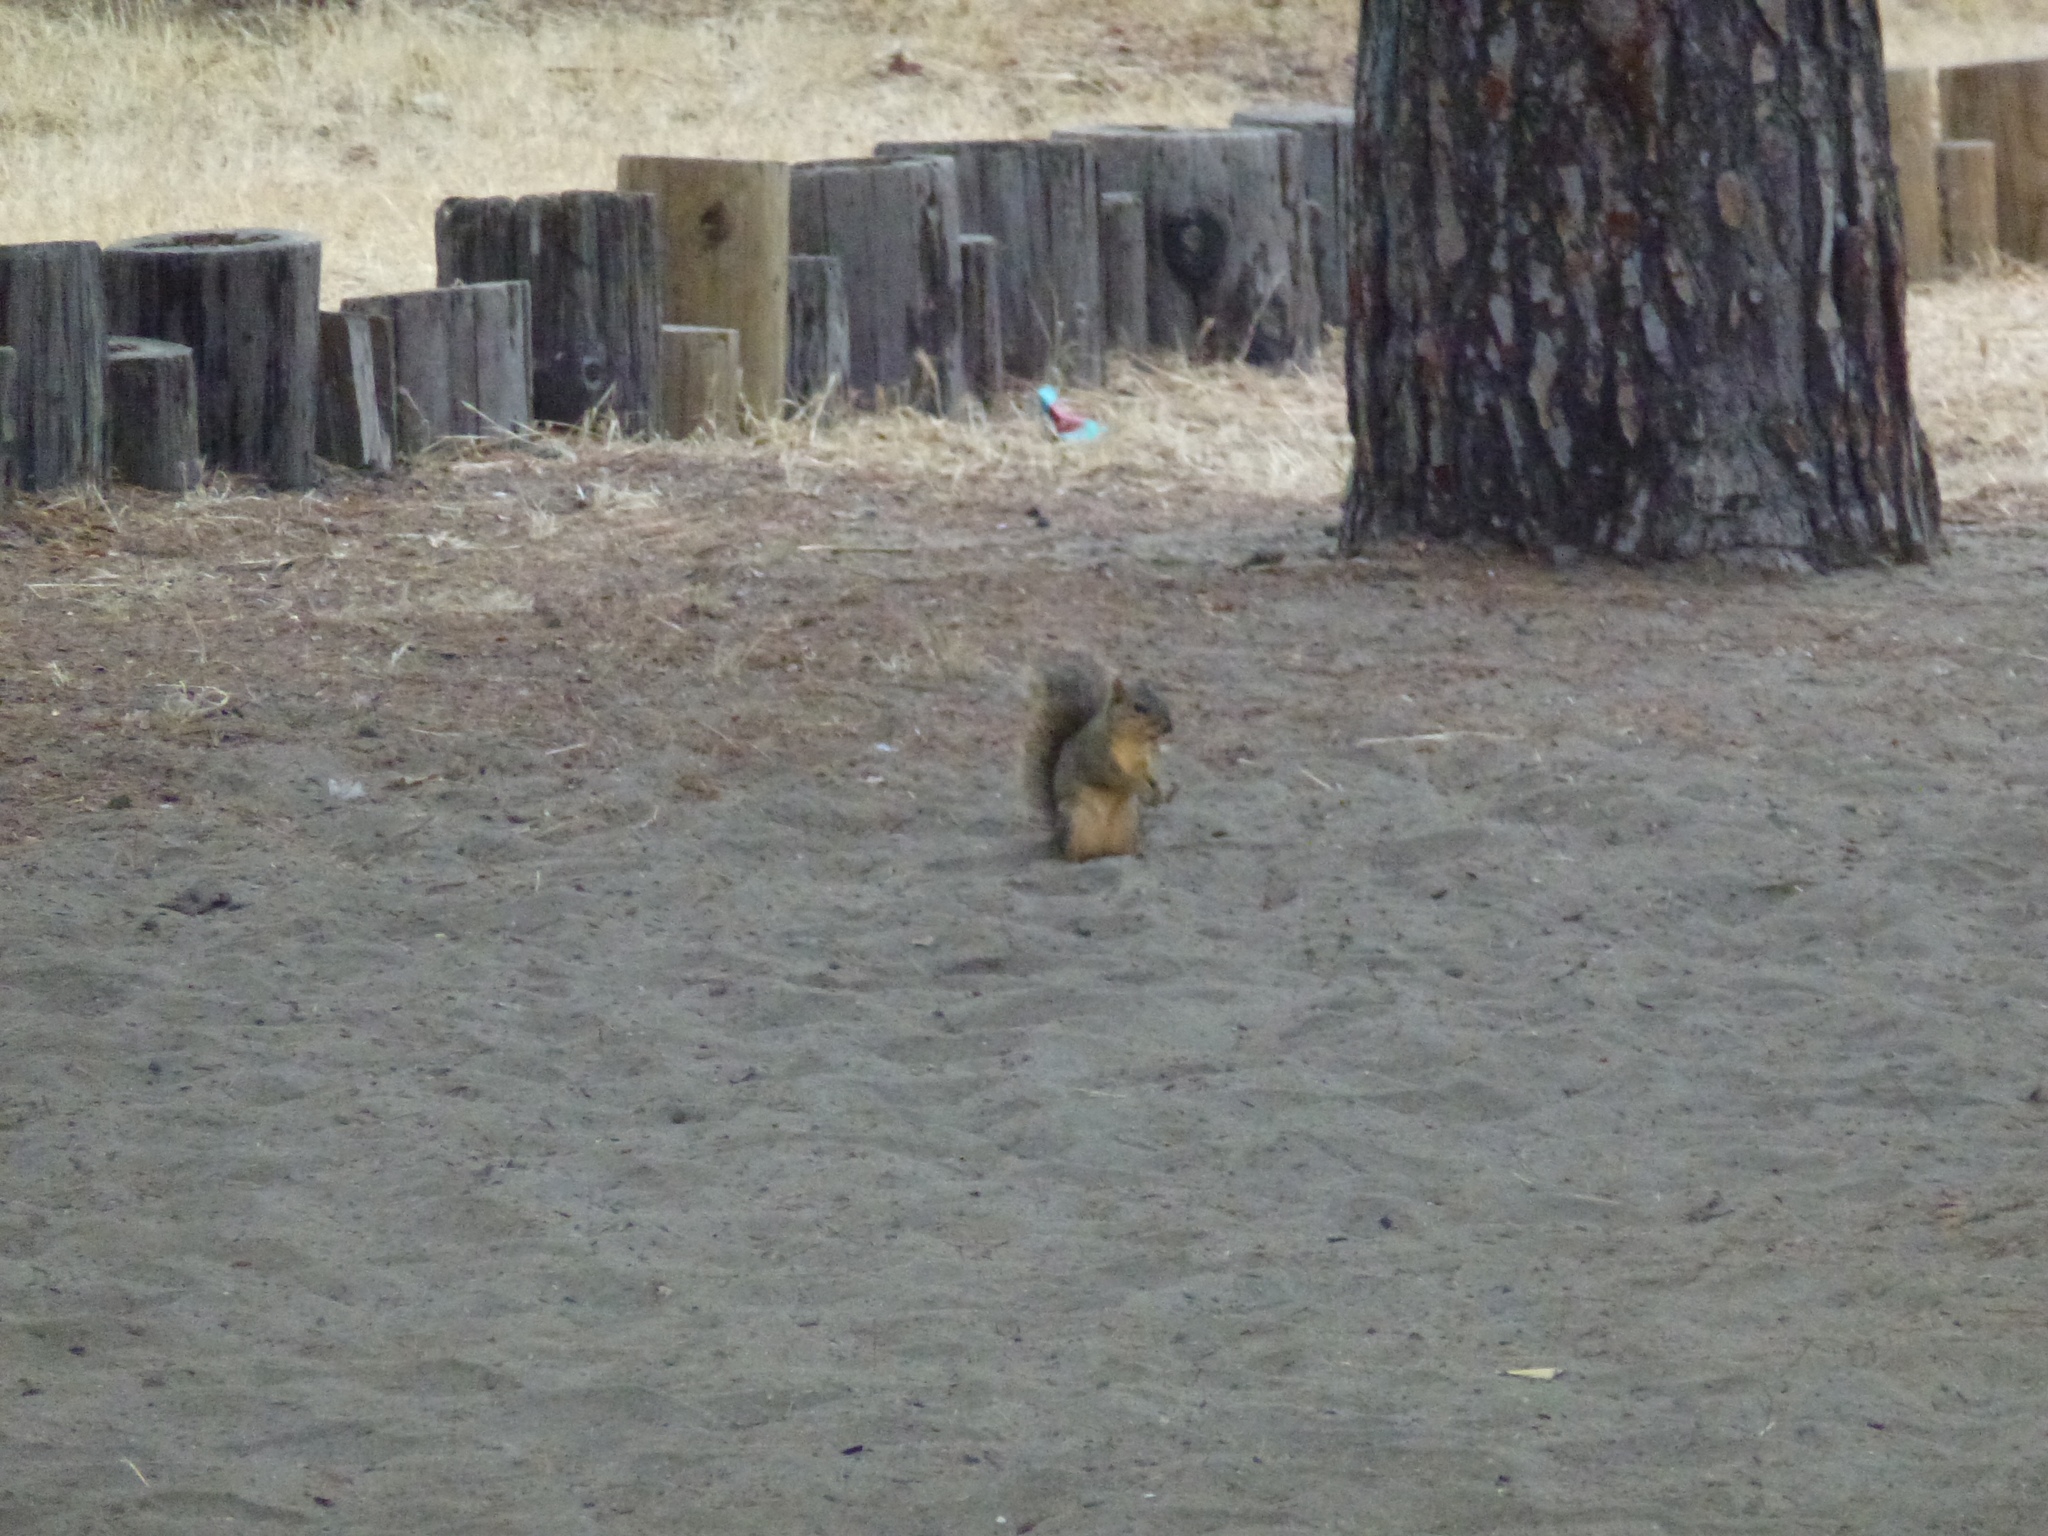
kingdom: Animalia
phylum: Chordata
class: Mammalia
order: Rodentia
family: Sciuridae
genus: Sciurus
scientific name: Sciurus niger
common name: Fox squirrel
